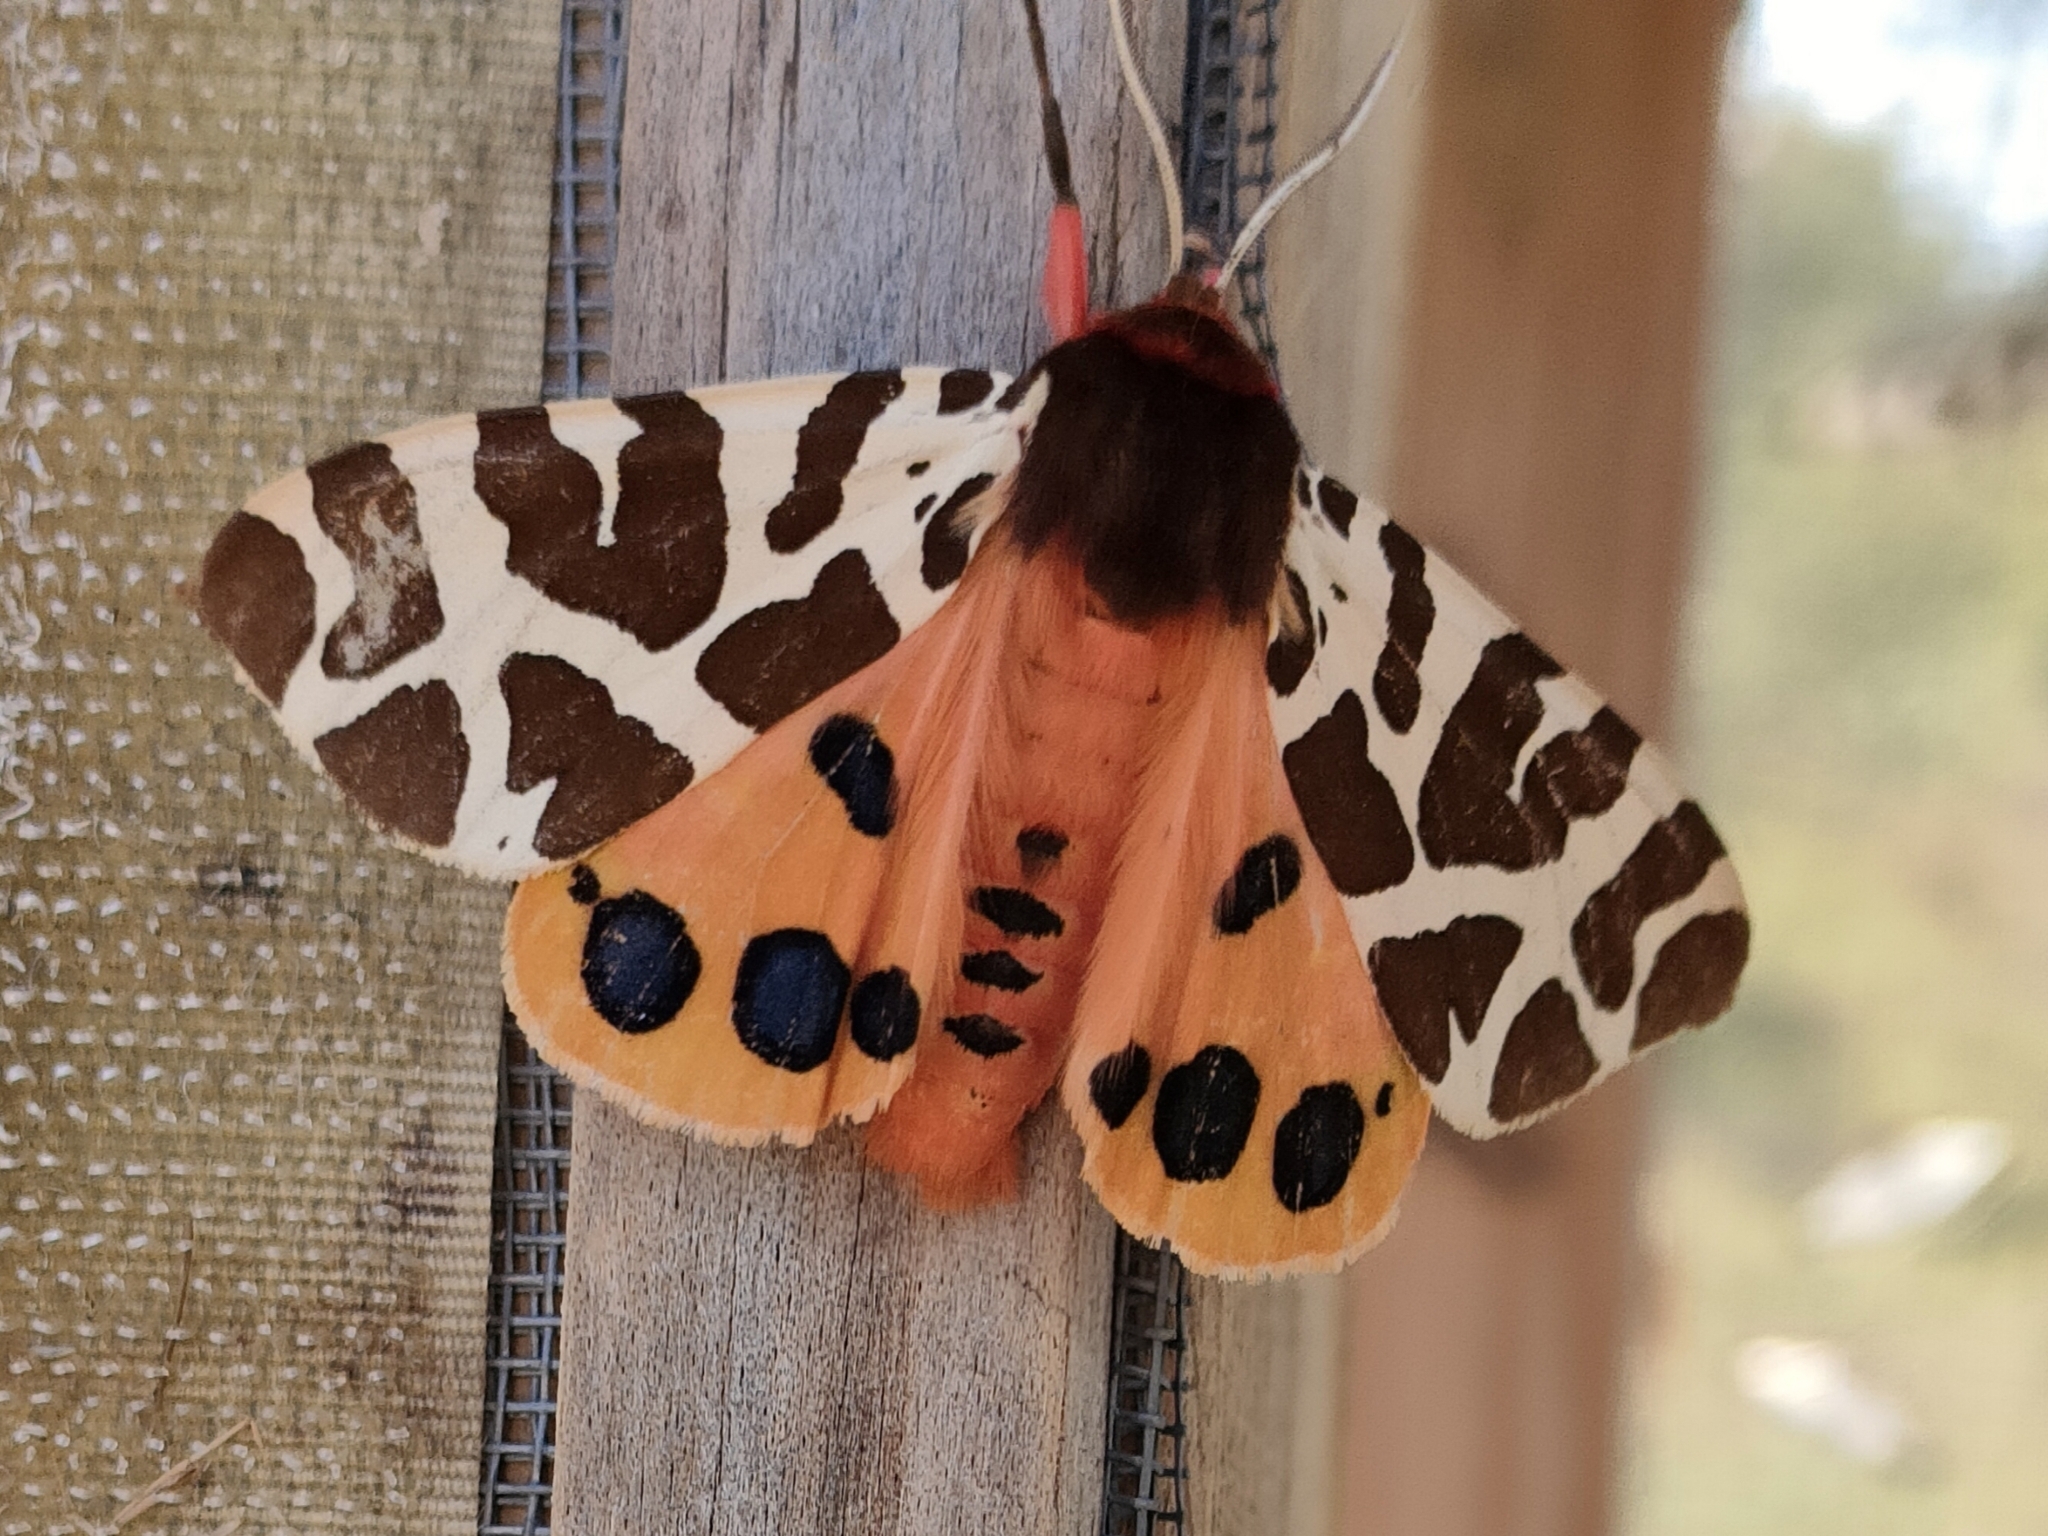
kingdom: Animalia
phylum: Arthropoda
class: Insecta
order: Lepidoptera
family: Erebidae
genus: Arctia
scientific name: Arctia caja
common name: Garden tiger
